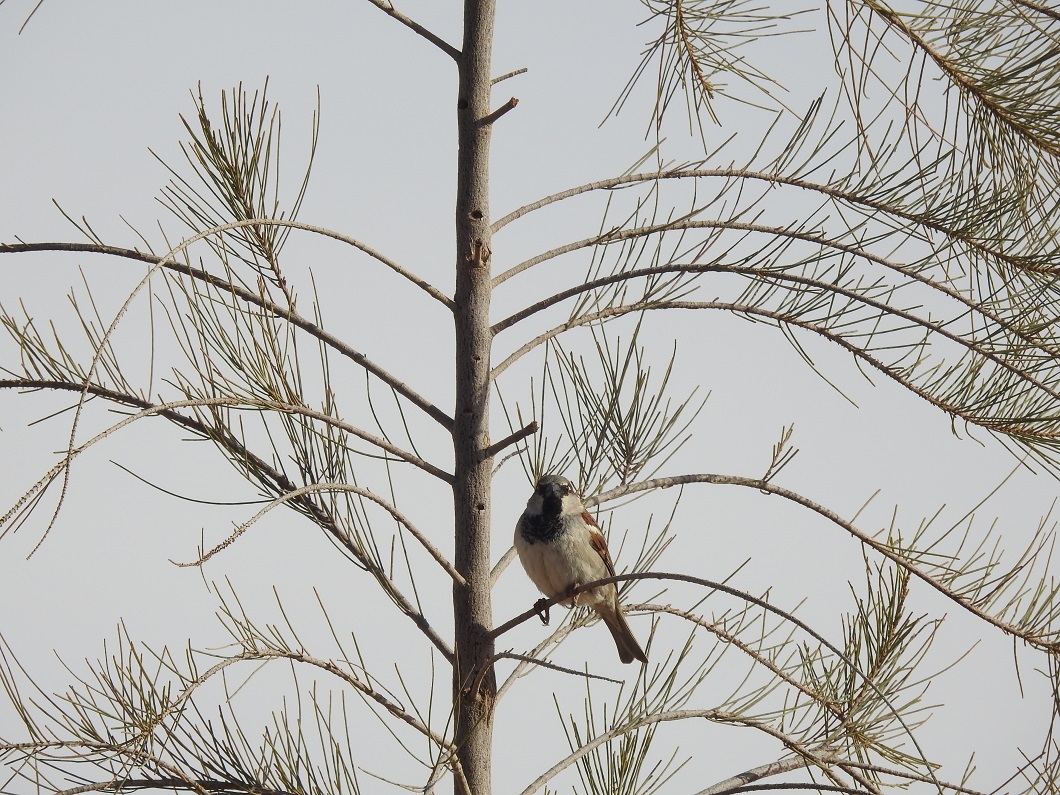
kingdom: Animalia
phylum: Chordata
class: Aves
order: Passeriformes
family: Passeridae
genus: Passer
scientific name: Passer domesticus
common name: House sparrow
